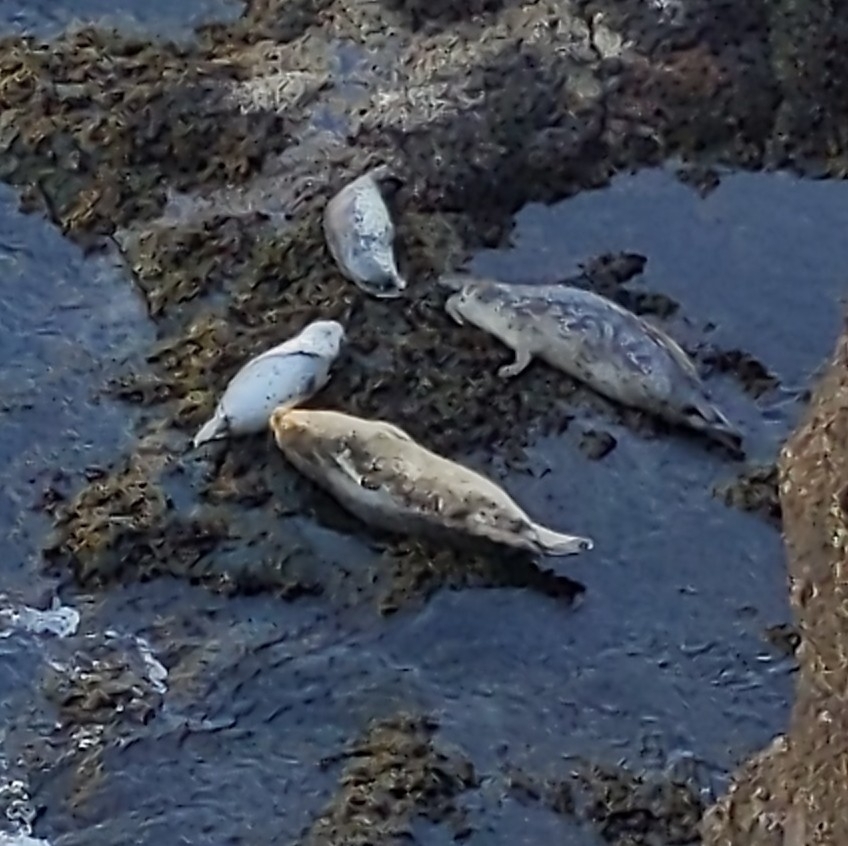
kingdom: Animalia
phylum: Chordata
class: Mammalia
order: Carnivora
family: Phocidae
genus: Phoca
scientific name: Phoca vitulina
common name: Harbor seal
